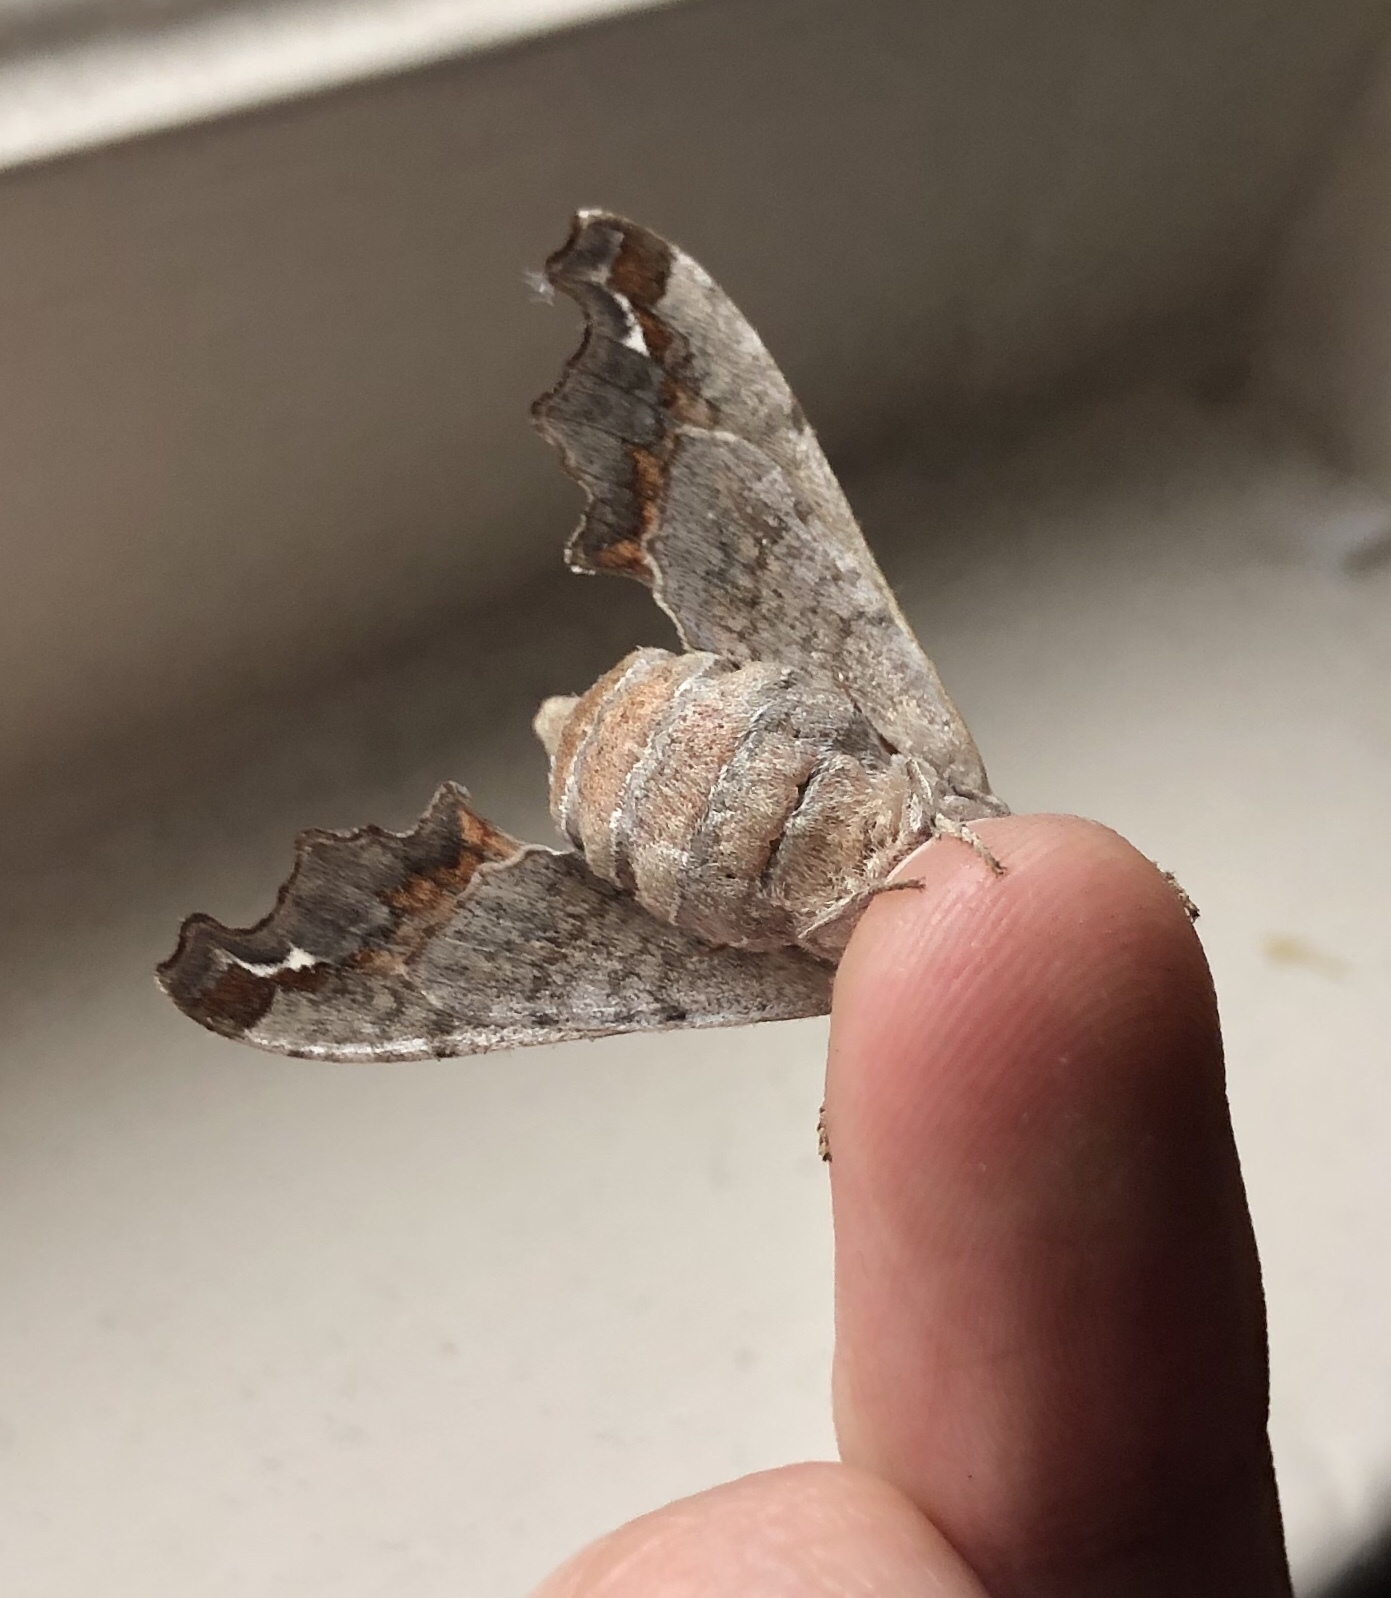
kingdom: Animalia
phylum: Arthropoda
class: Insecta
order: Lepidoptera
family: Sphingidae
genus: Deidamia
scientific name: Deidamia inscriptum
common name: Lettered sphinx
